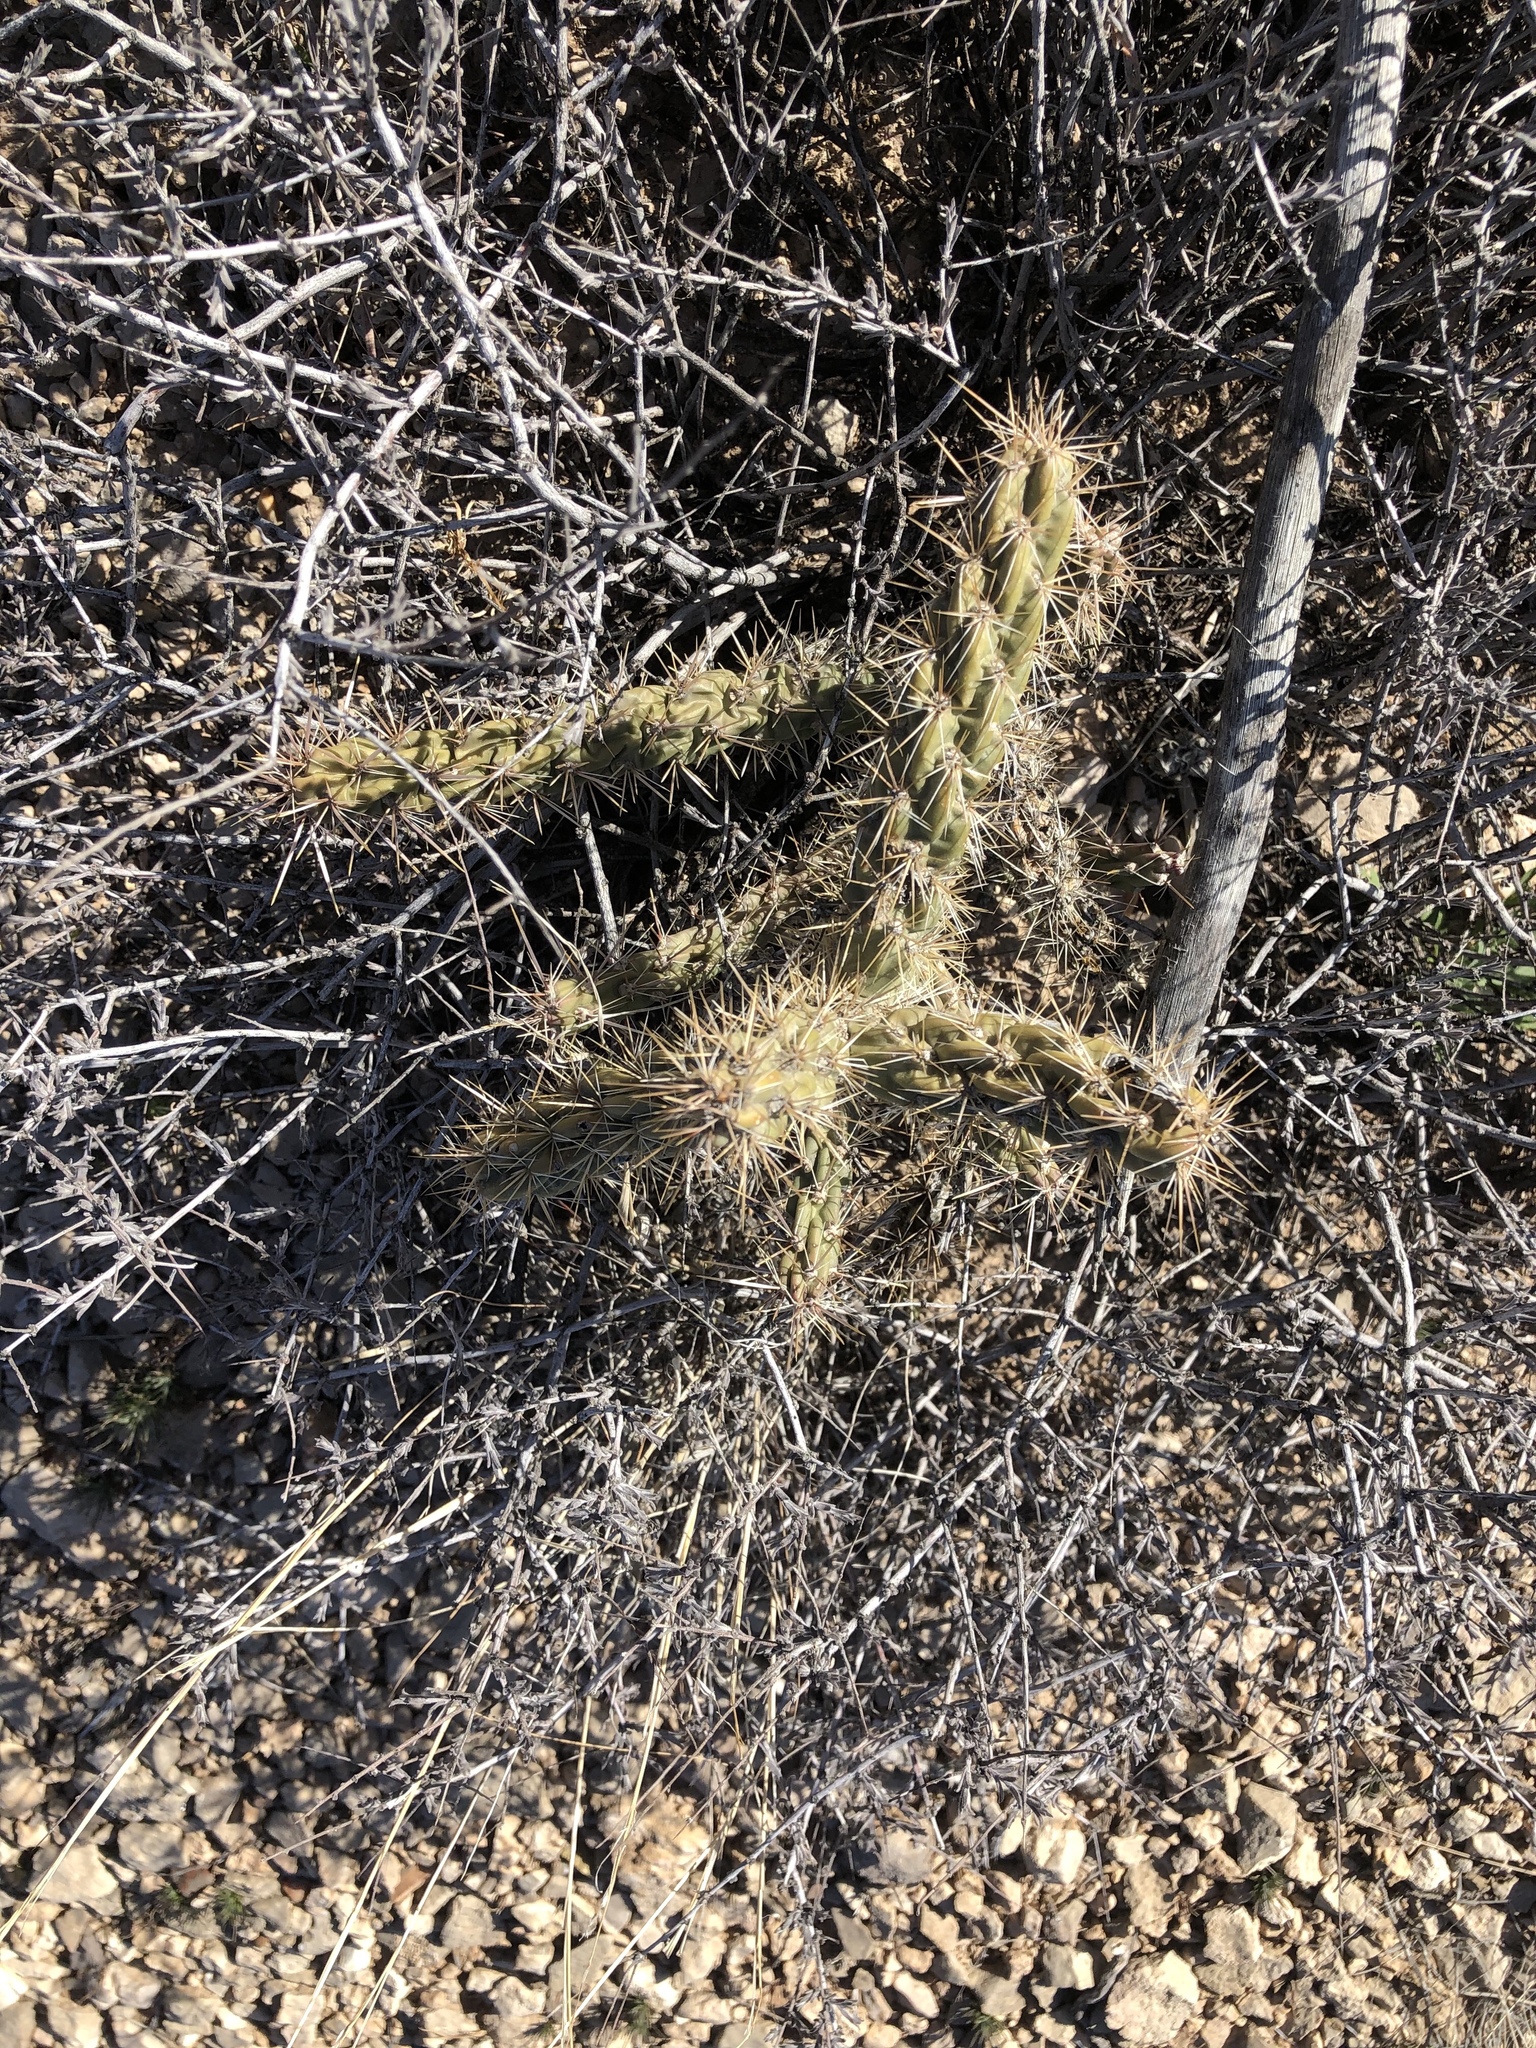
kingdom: Plantae
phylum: Tracheophyta
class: Magnoliopsida
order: Caryophyllales
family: Cactaceae
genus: Cylindropuntia
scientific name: Cylindropuntia imbricata
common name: Candelabrum cactus
